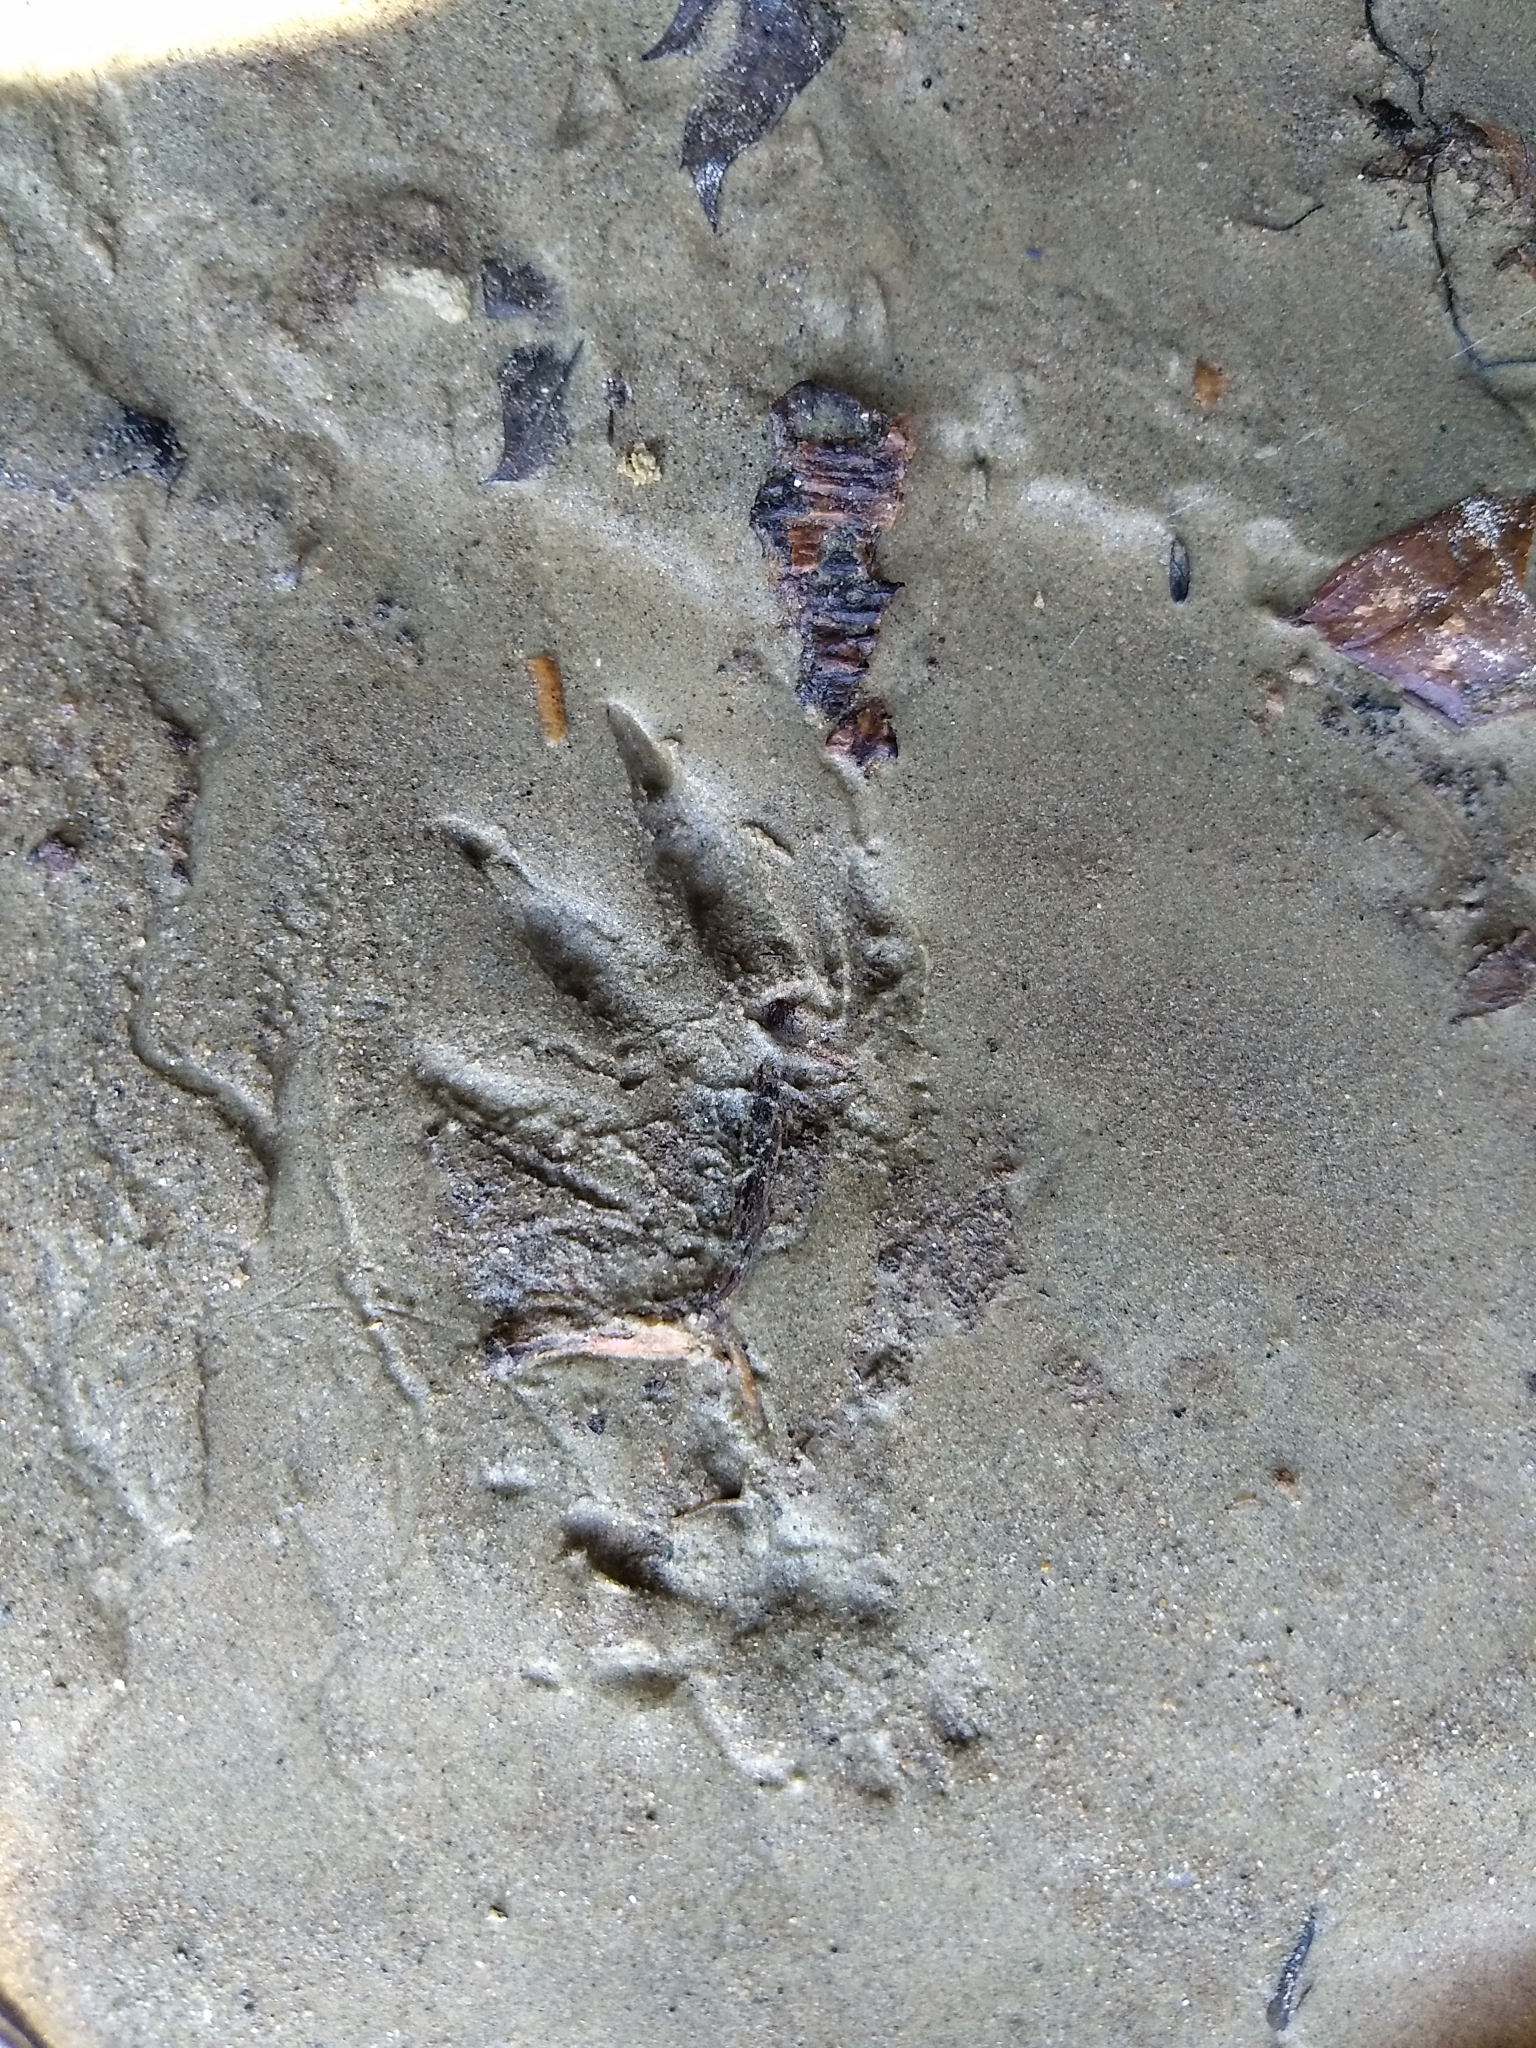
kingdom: Animalia
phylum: Chordata
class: Mammalia
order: Rodentia
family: Cricetidae
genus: Ondatra
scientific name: Ondatra zibethicus
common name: Muskrat
